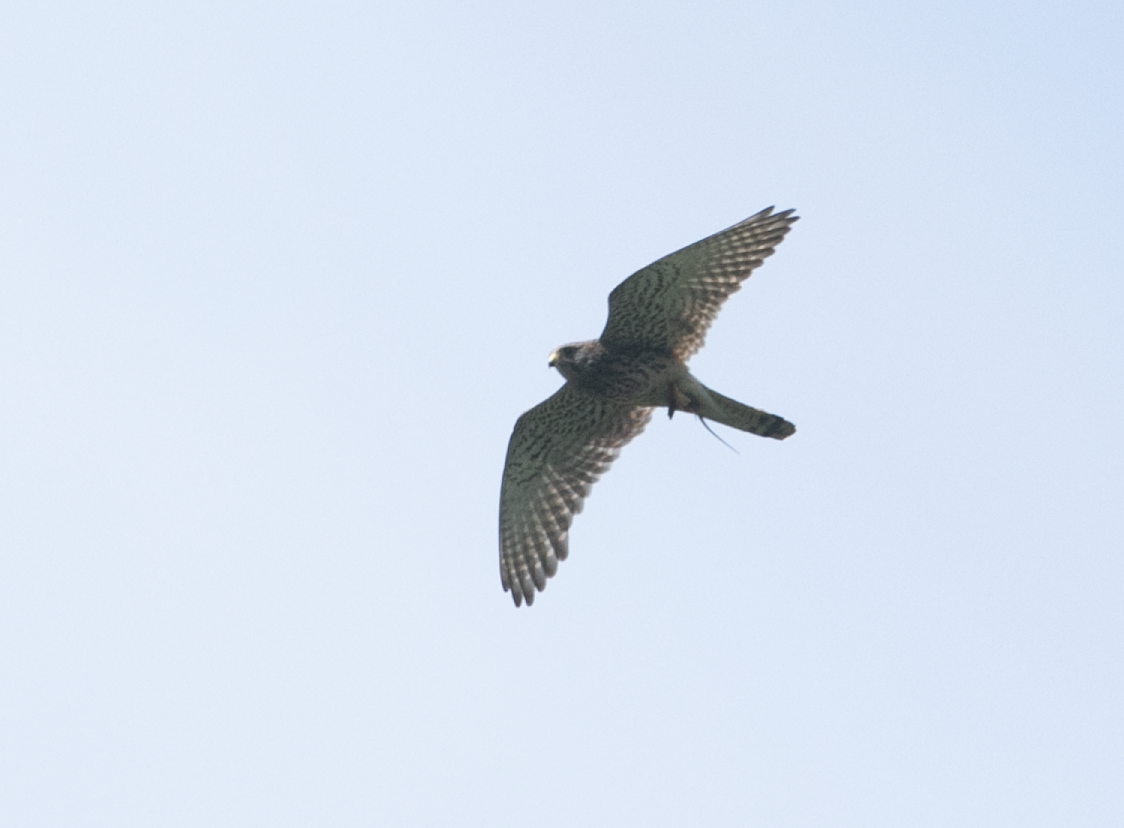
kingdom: Animalia
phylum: Chordata
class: Aves
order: Falconiformes
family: Falconidae
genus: Falco
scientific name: Falco tinnunculus
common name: Common kestrel
